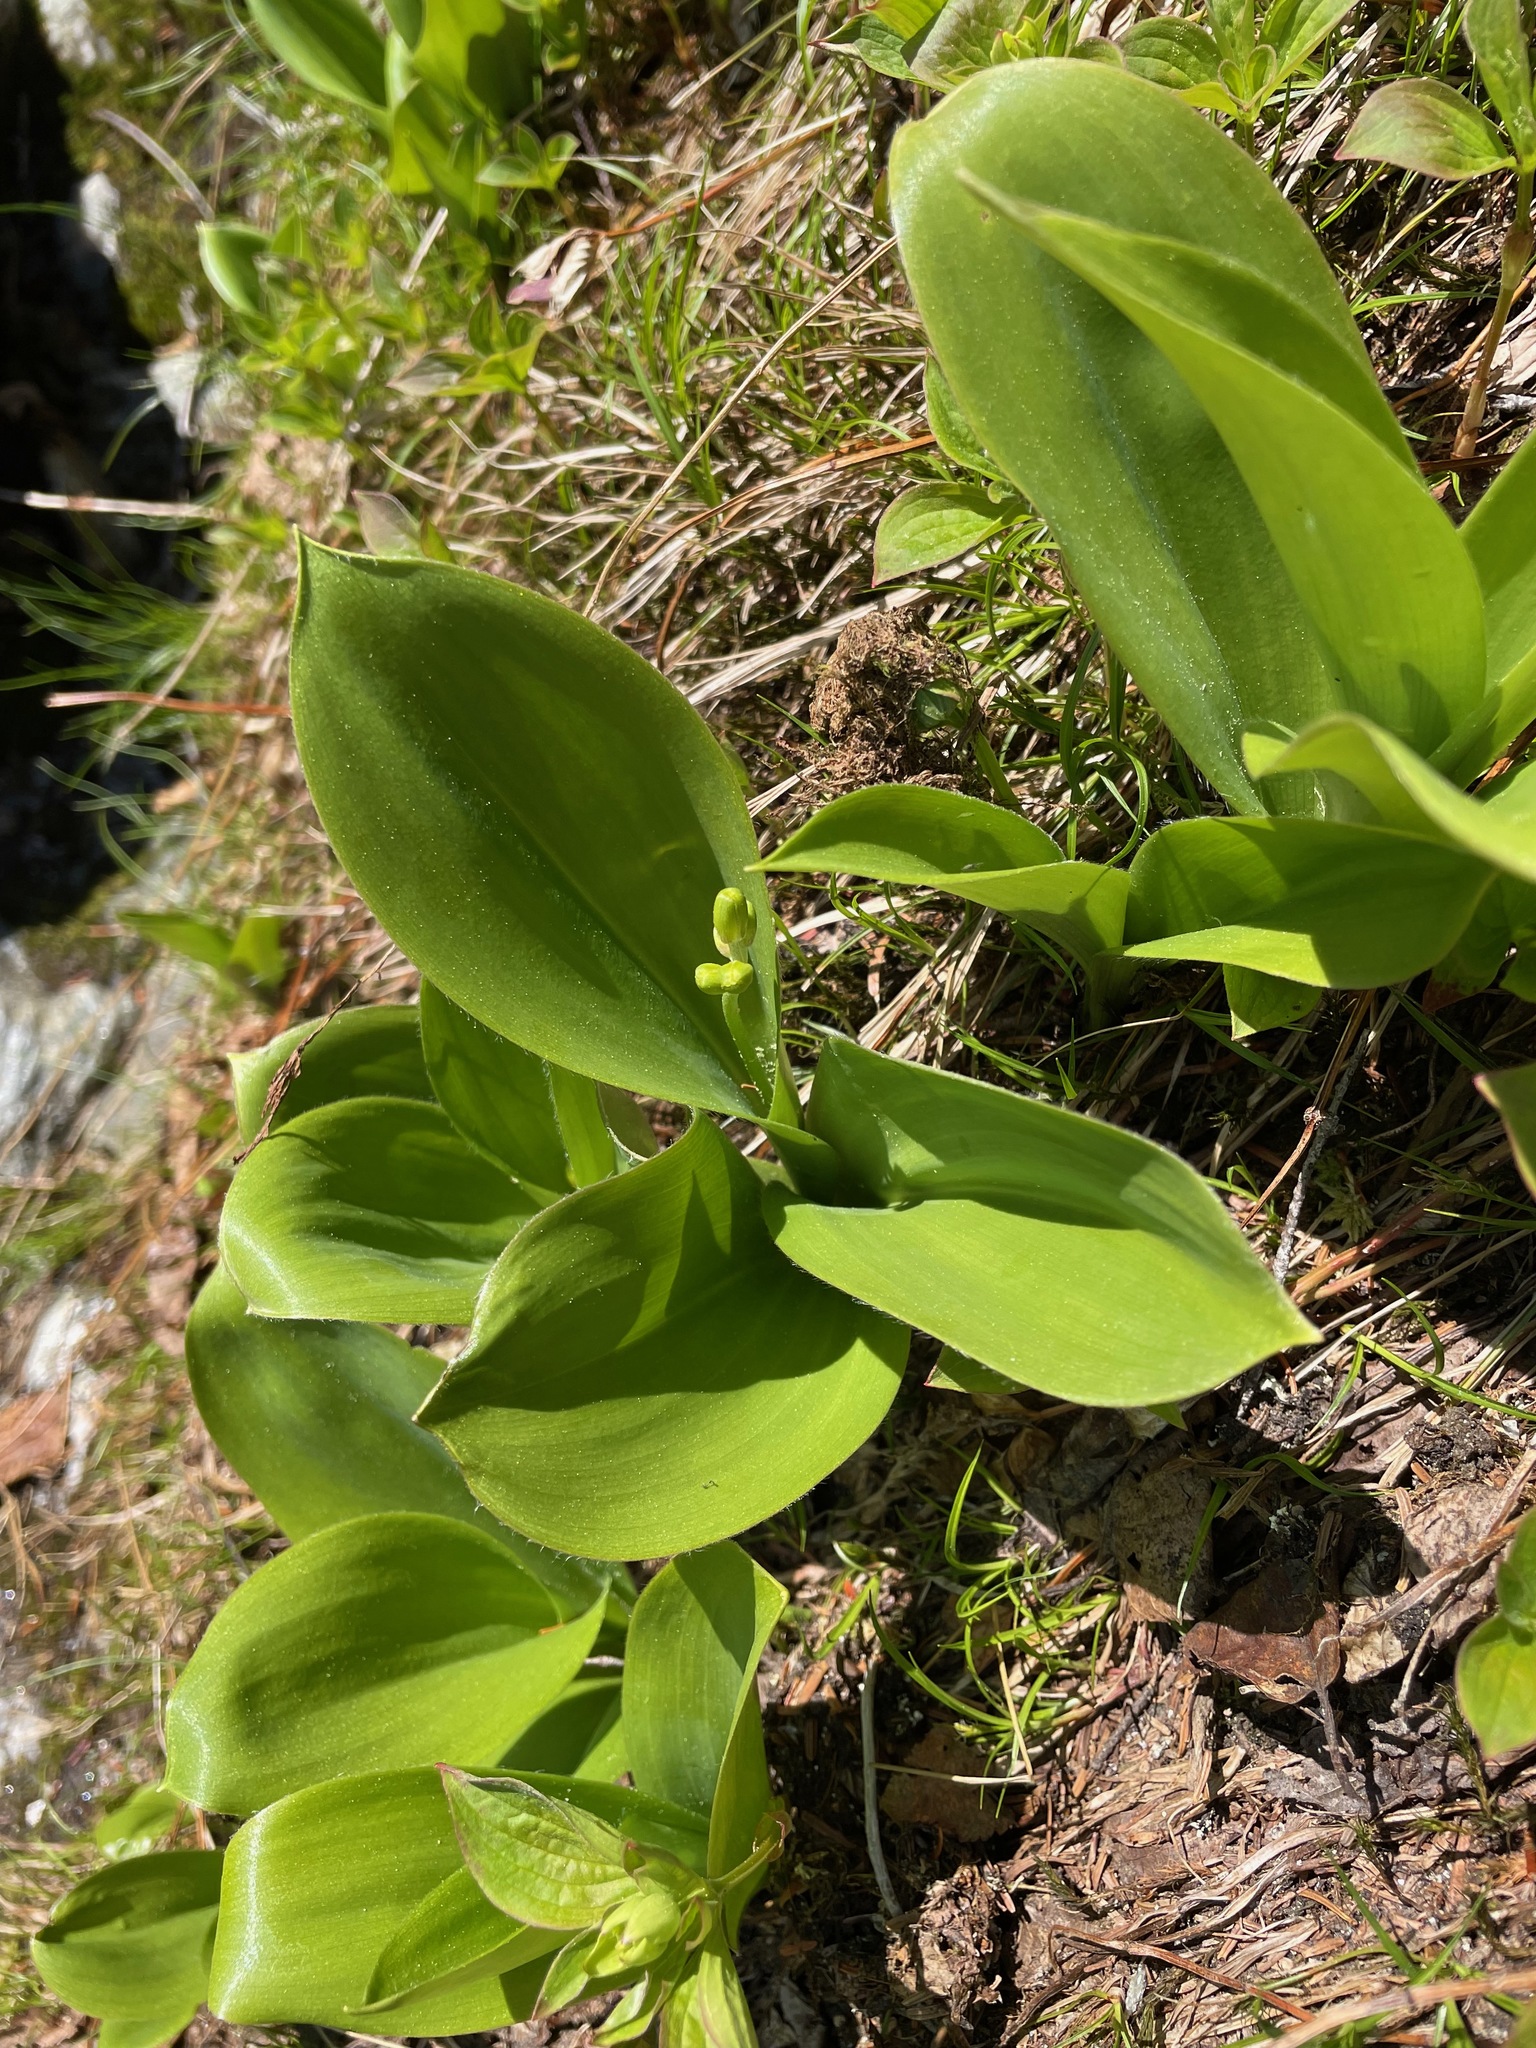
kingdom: Plantae
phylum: Tracheophyta
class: Liliopsida
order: Liliales
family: Liliaceae
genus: Clintonia
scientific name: Clintonia borealis
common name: Yellow clintonia
